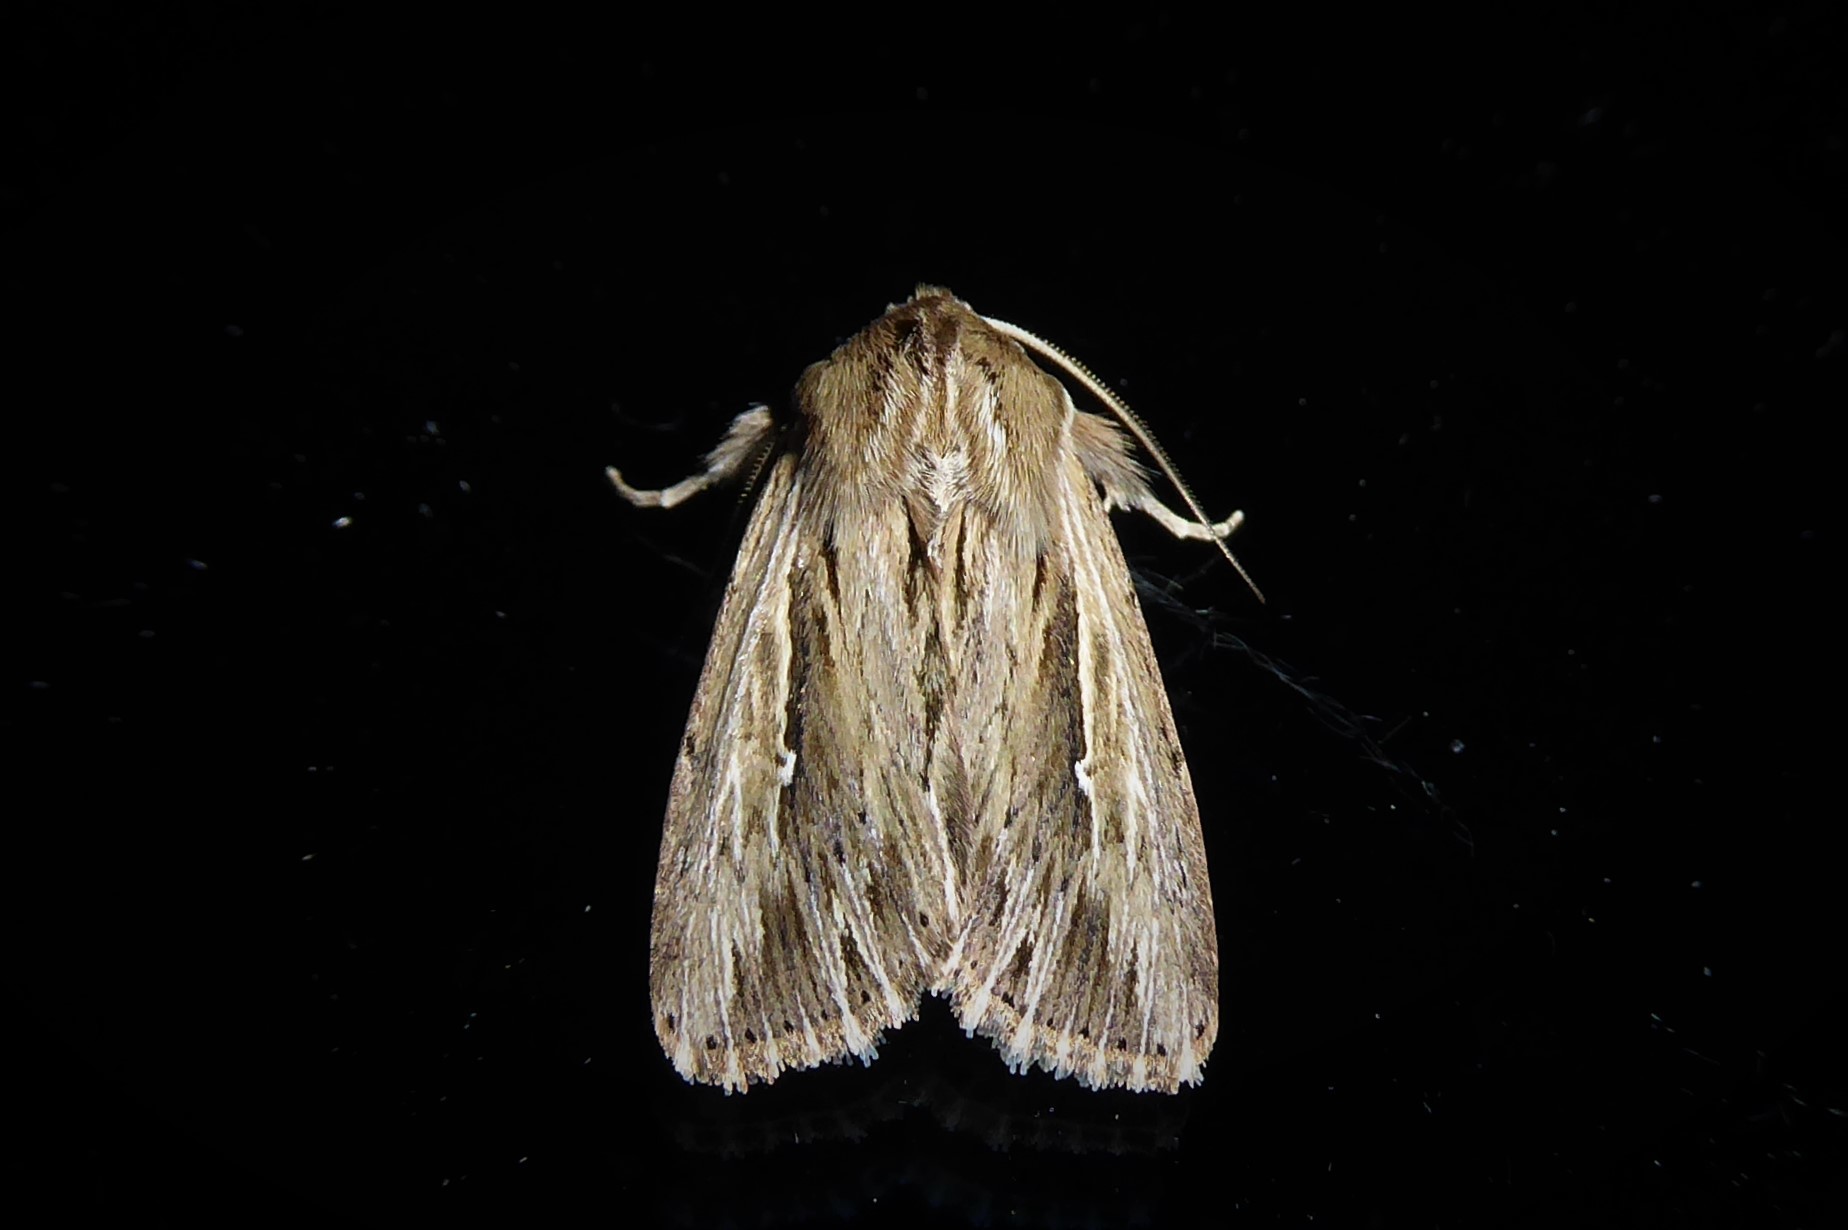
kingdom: Animalia
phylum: Arthropoda
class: Insecta
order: Lepidoptera
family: Noctuidae
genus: Persectania
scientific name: Persectania aversa
